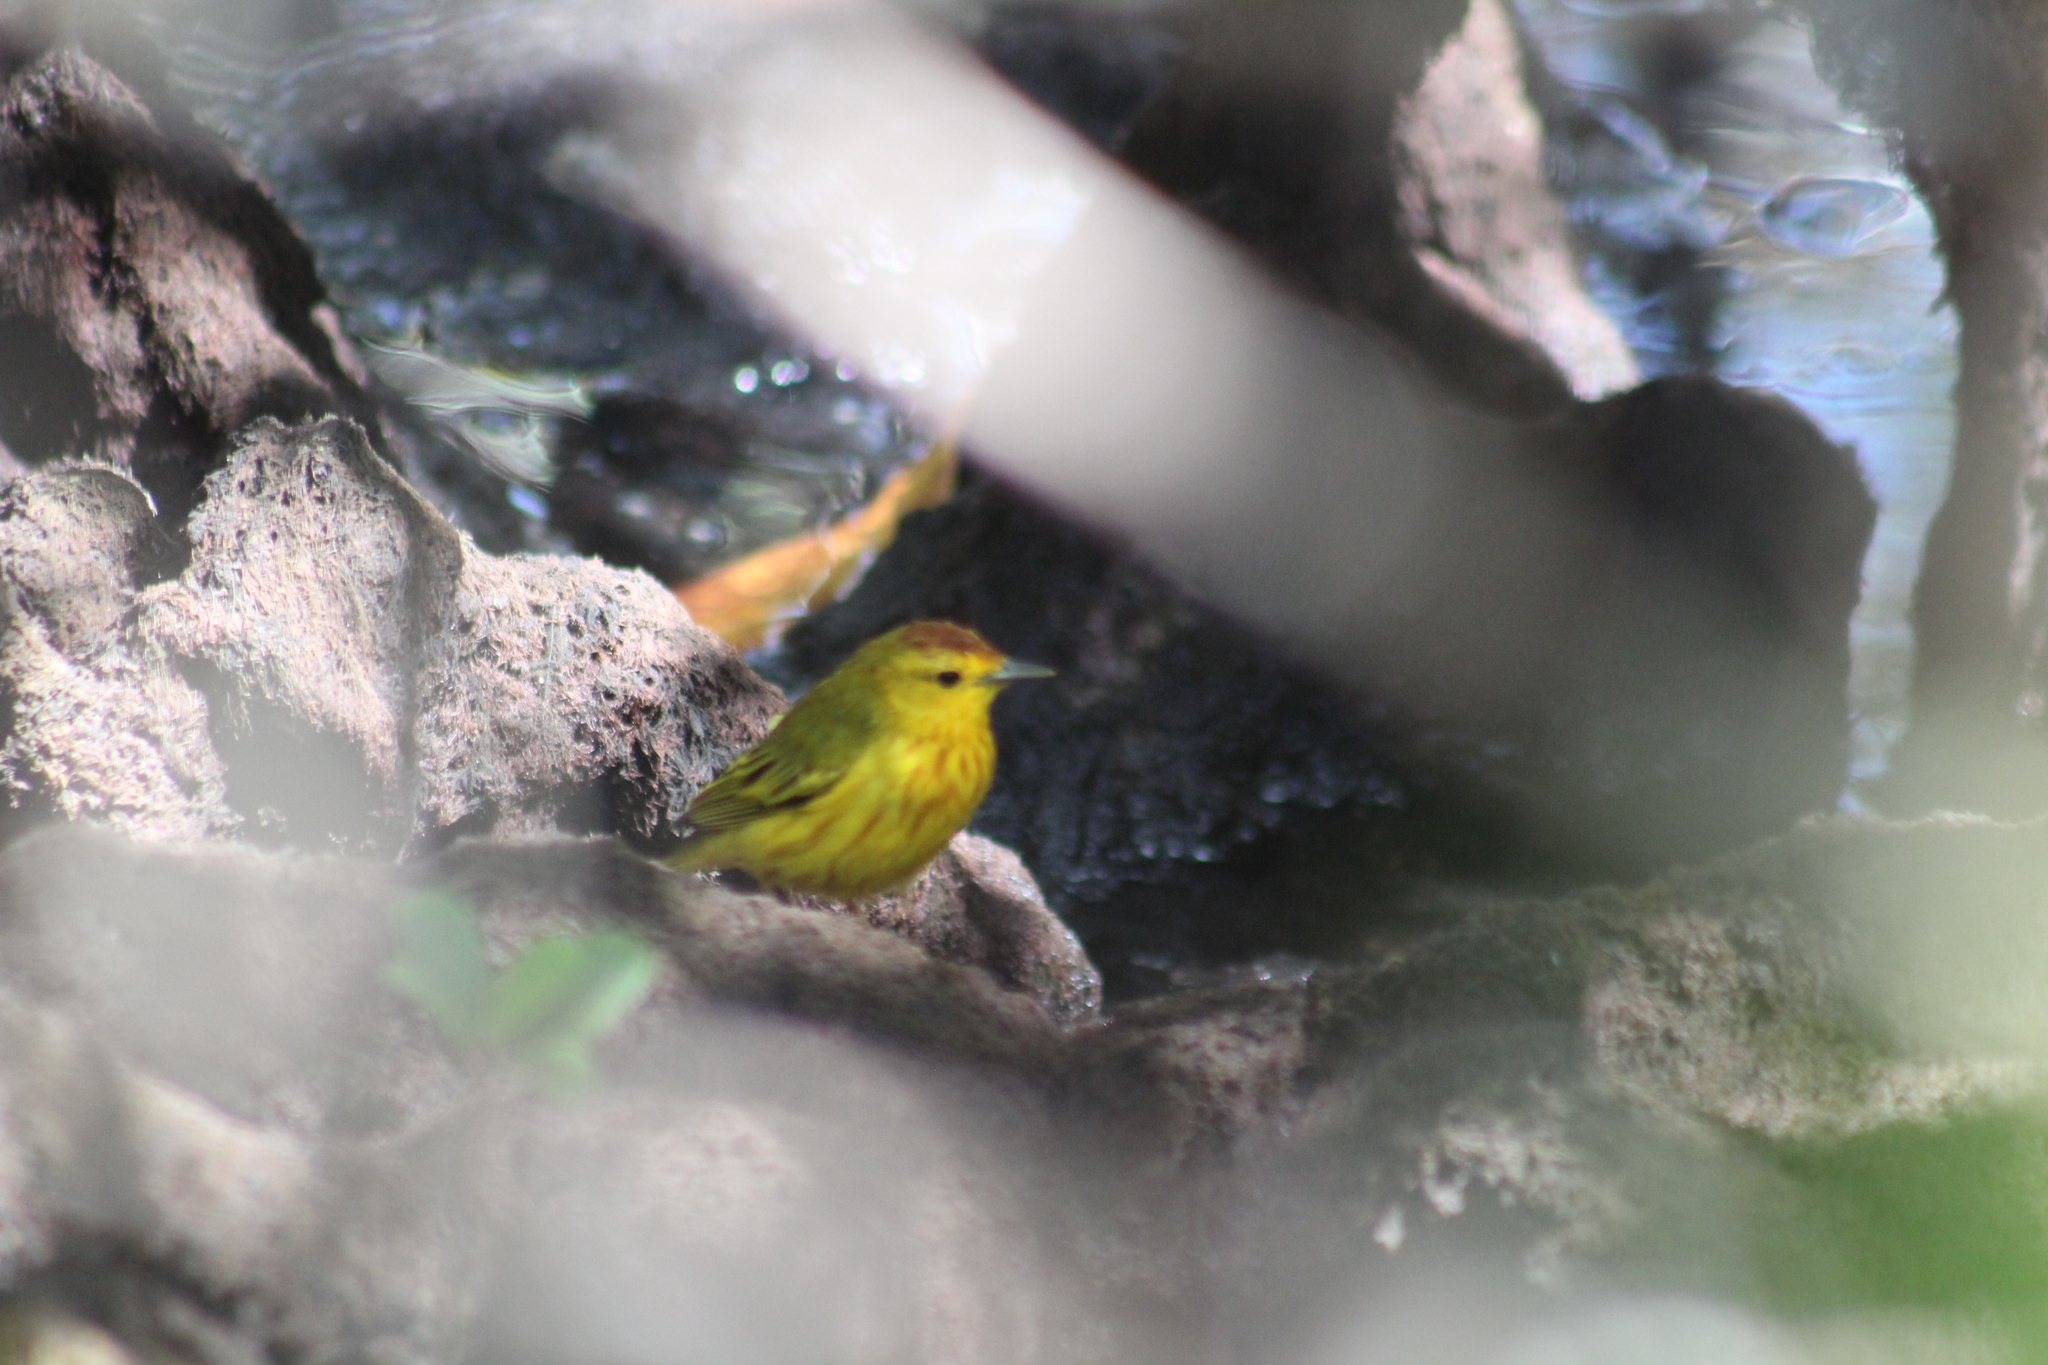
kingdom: Animalia
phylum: Chordata
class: Aves
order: Passeriformes
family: Parulidae
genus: Setophaga
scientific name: Setophaga petechia
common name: Yellow warbler
